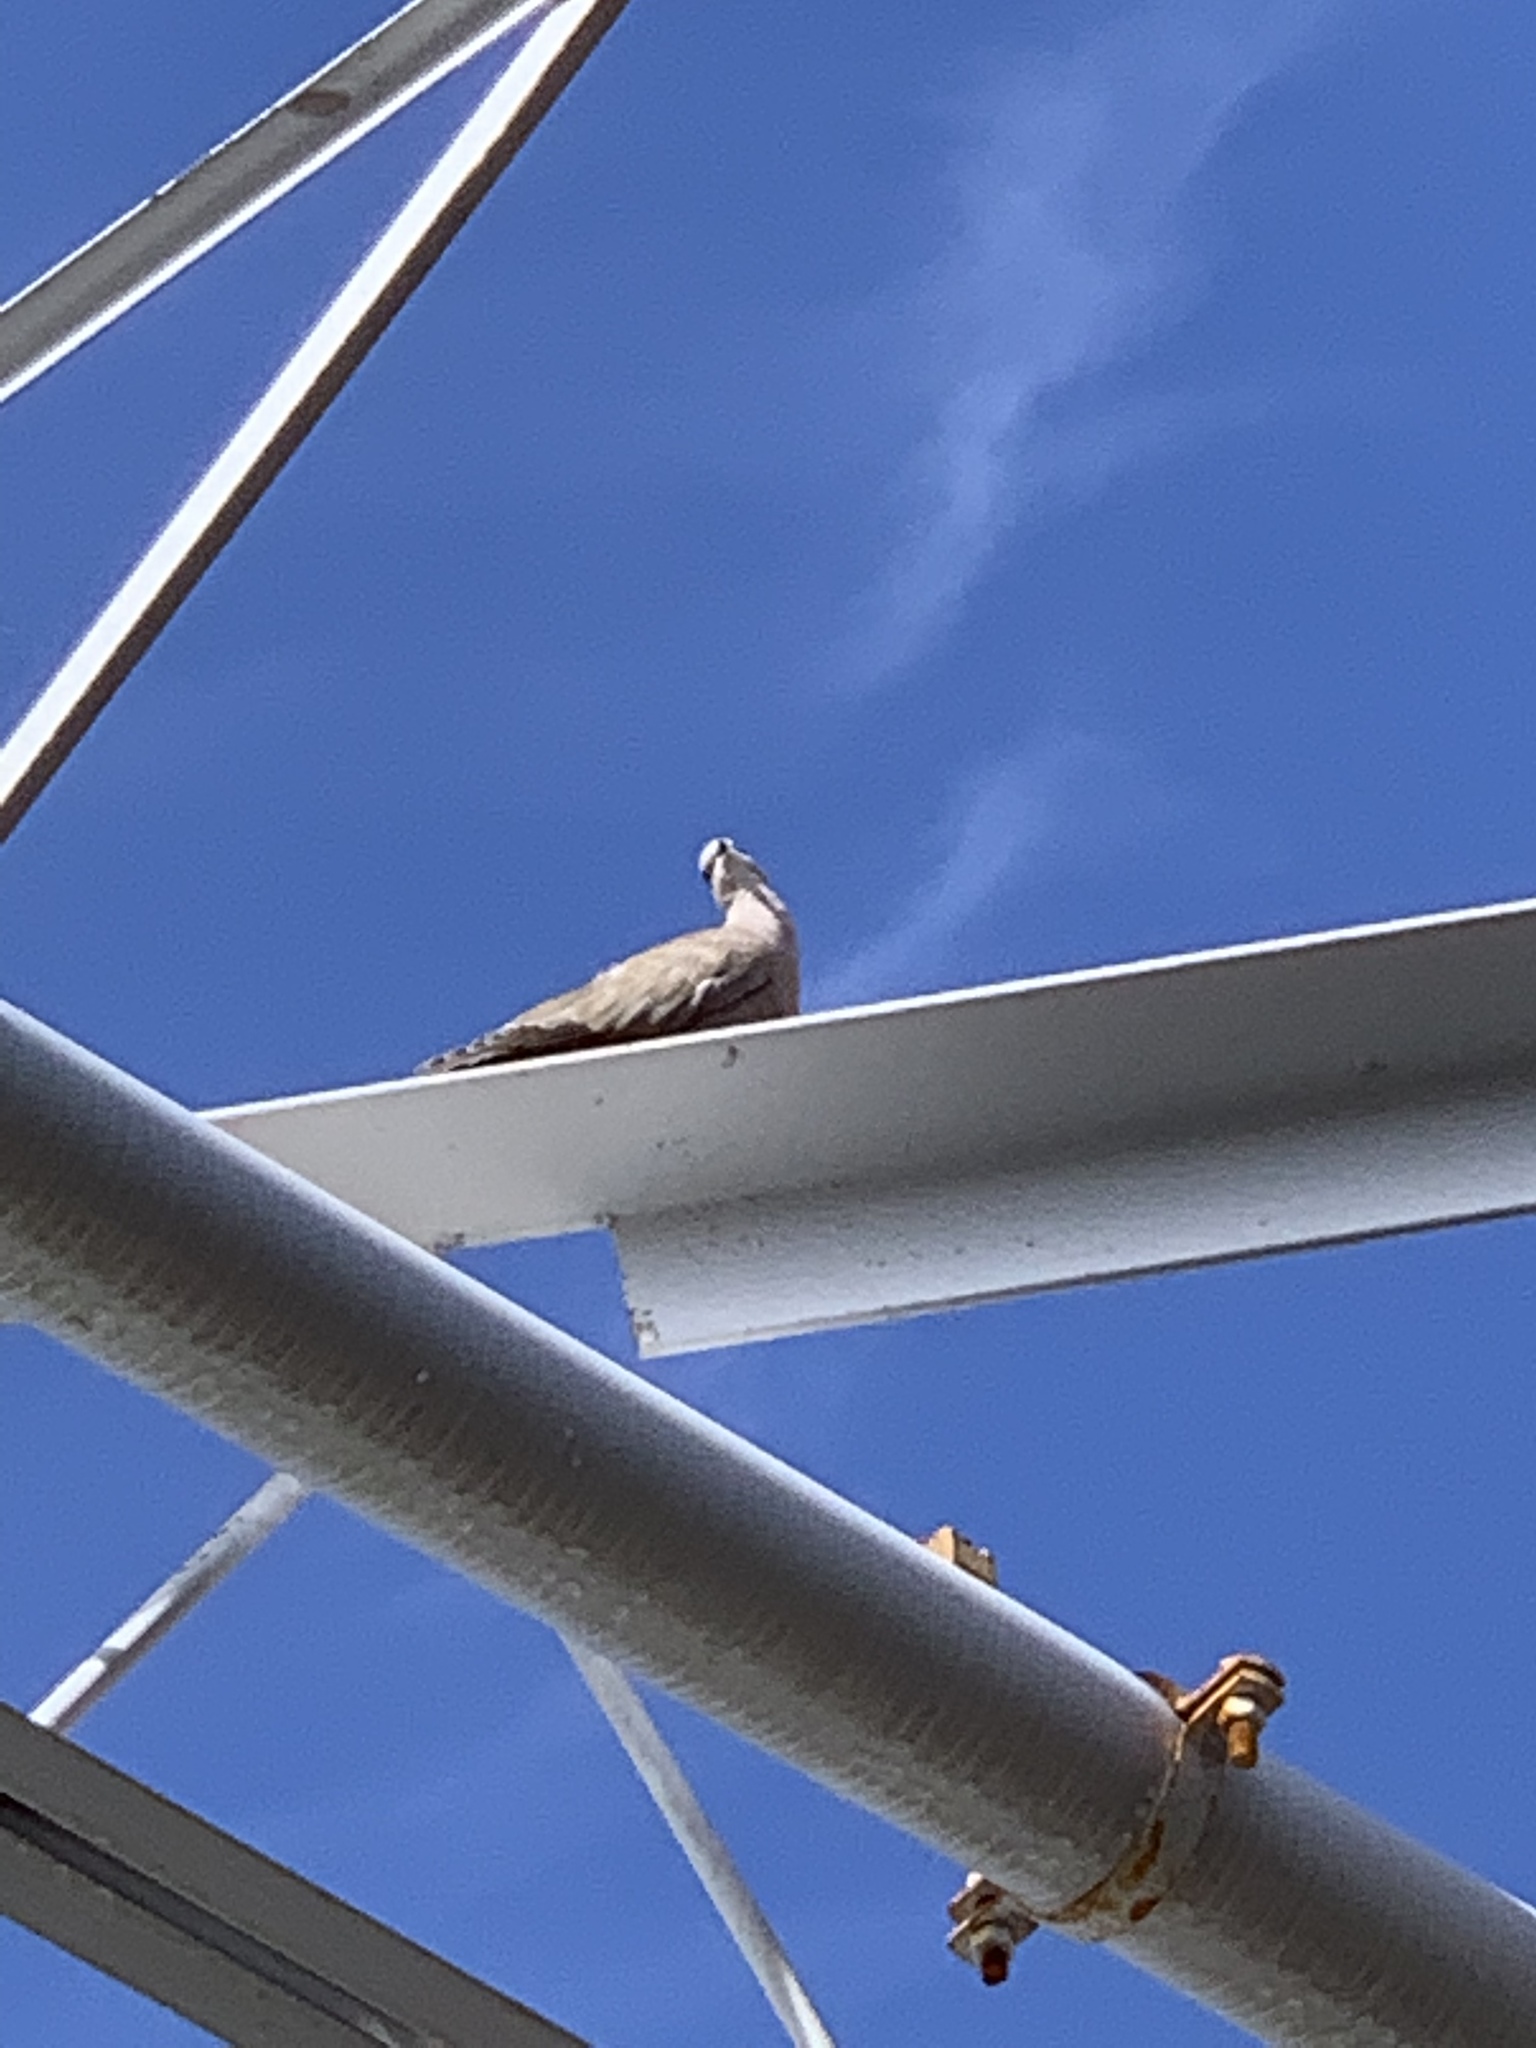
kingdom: Animalia
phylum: Chordata
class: Aves
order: Columbiformes
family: Columbidae
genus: Streptopelia
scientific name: Streptopelia decaocto
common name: Eurasian collared dove
